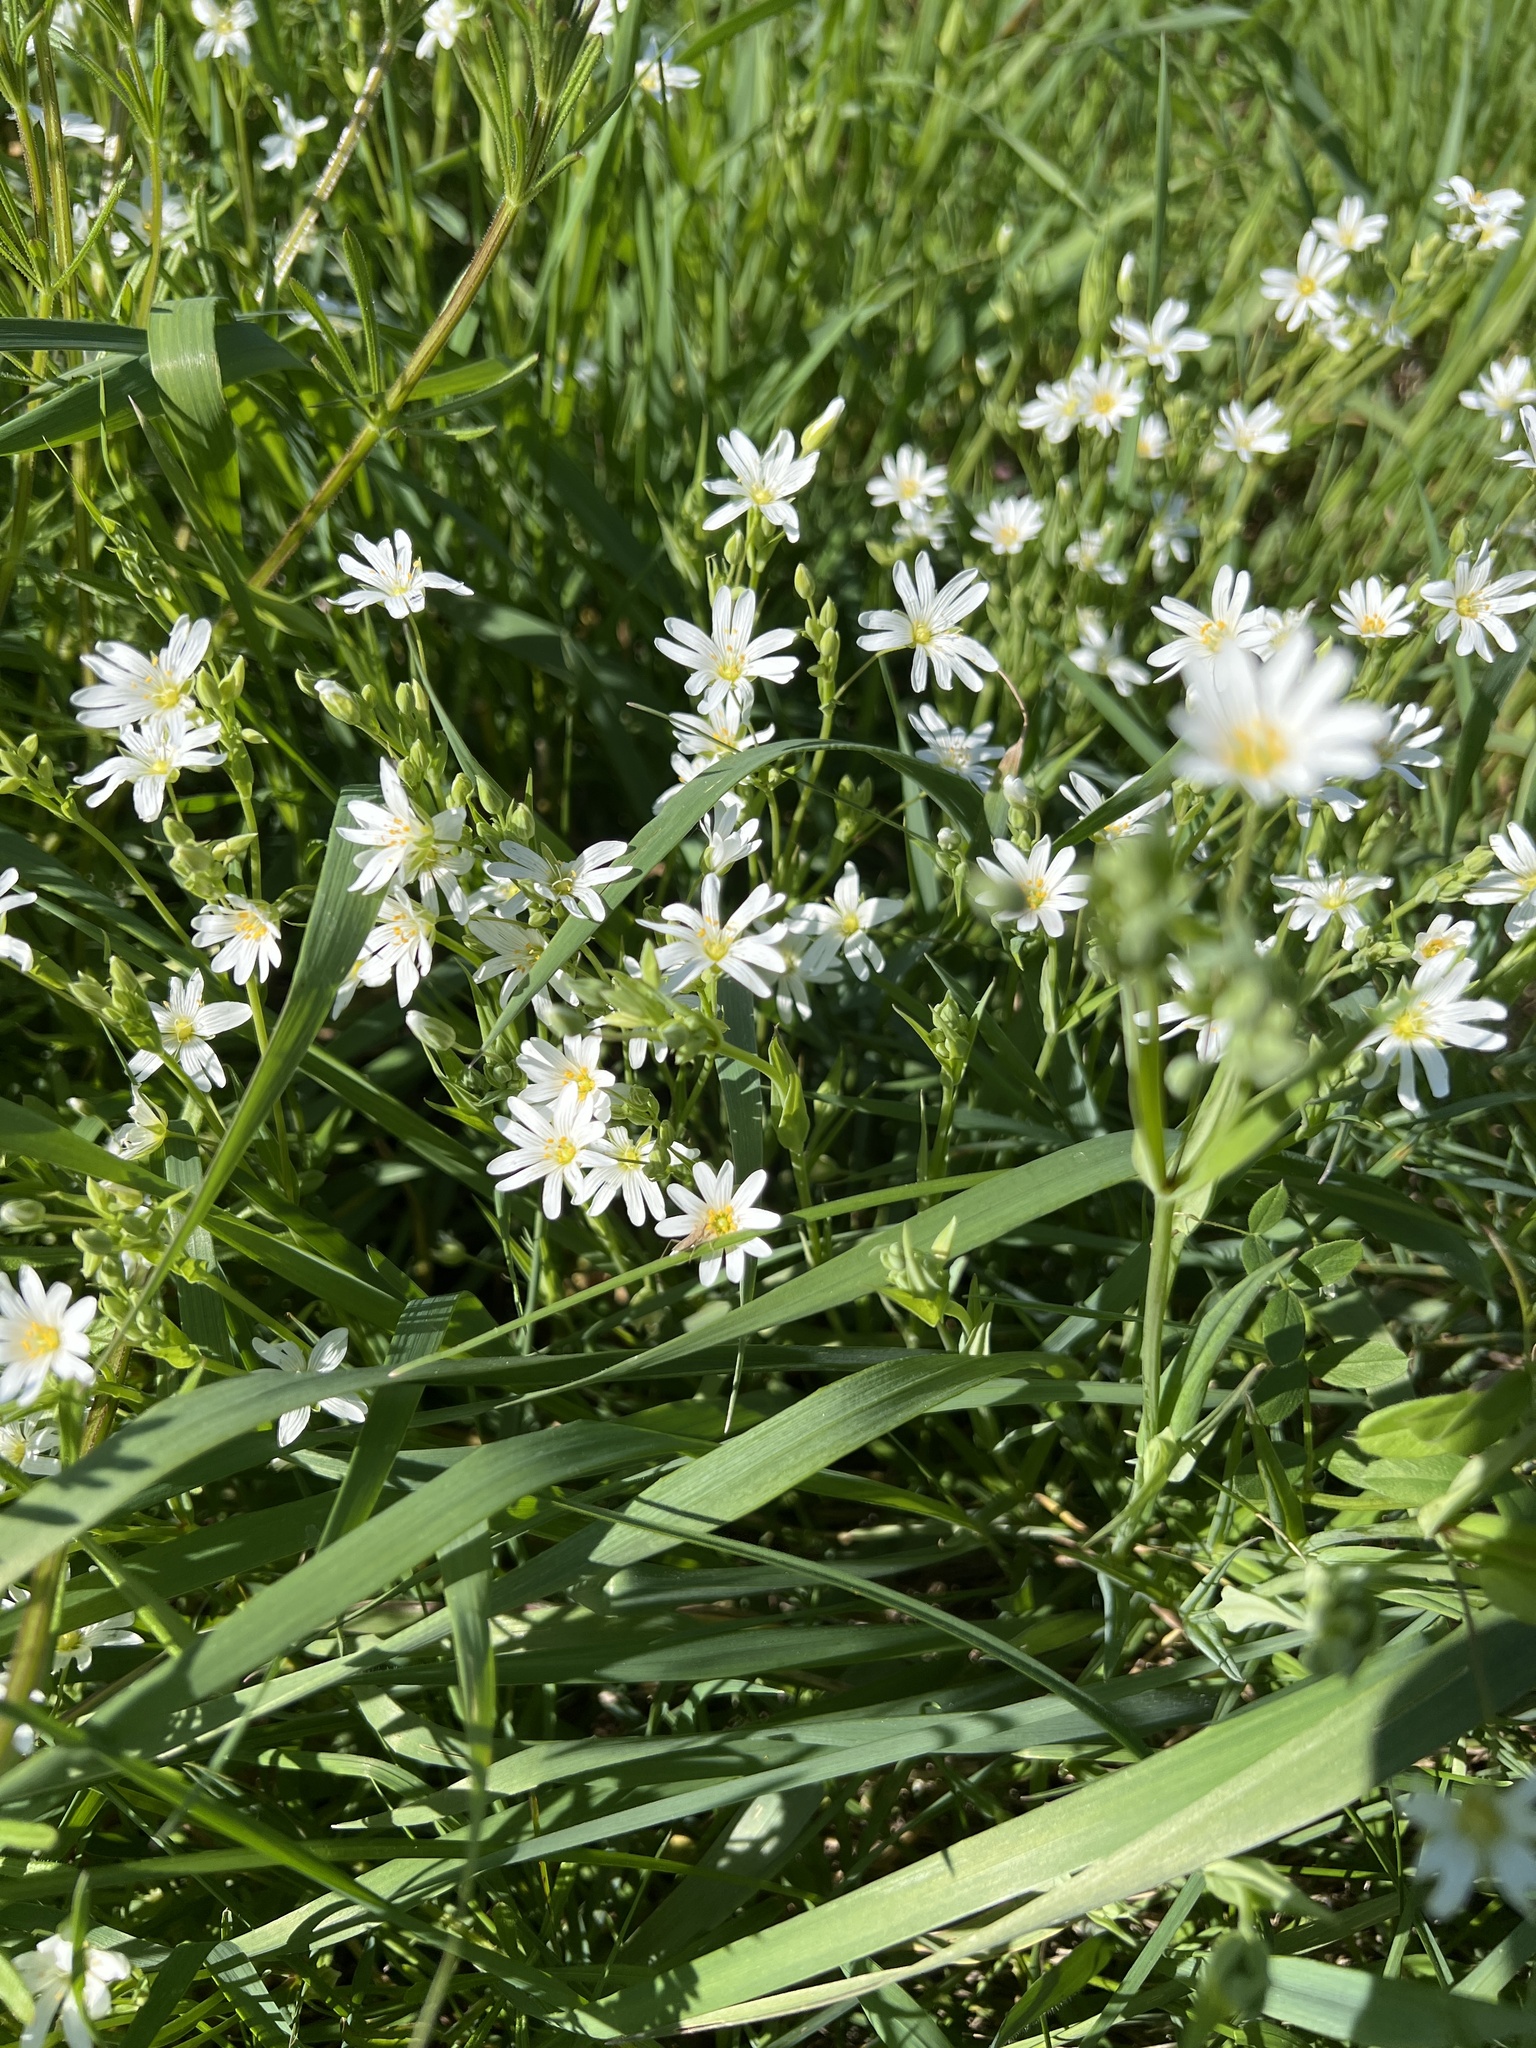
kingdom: Plantae
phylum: Tracheophyta
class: Magnoliopsida
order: Caryophyllales
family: Caryophyllaceae
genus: Rabelera
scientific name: Rabelera holostea
